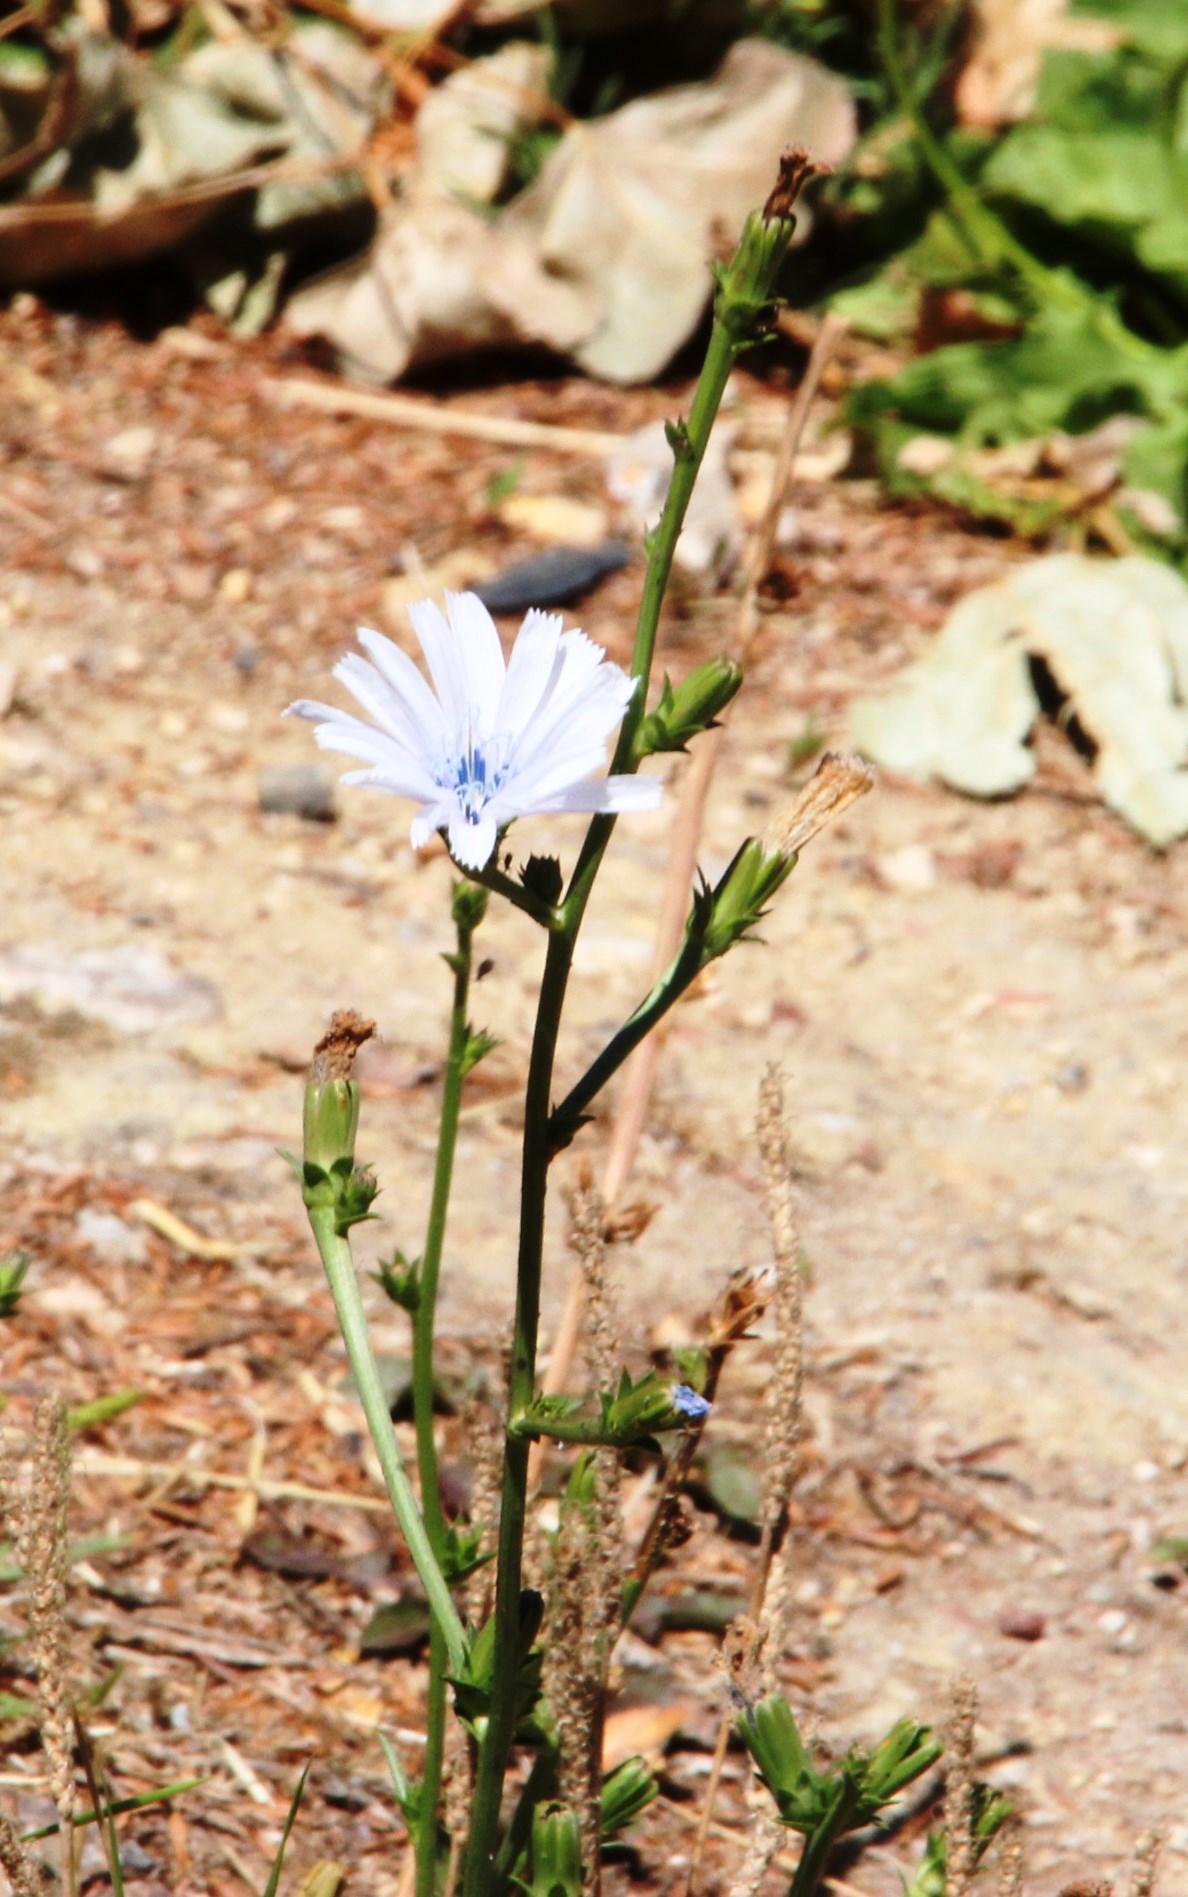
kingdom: Plantae
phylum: Tracheophyta
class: Magnoliopsida
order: Asterales
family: Asteraceae
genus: Cichorium
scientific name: Cichorium intybus
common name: Chicory
